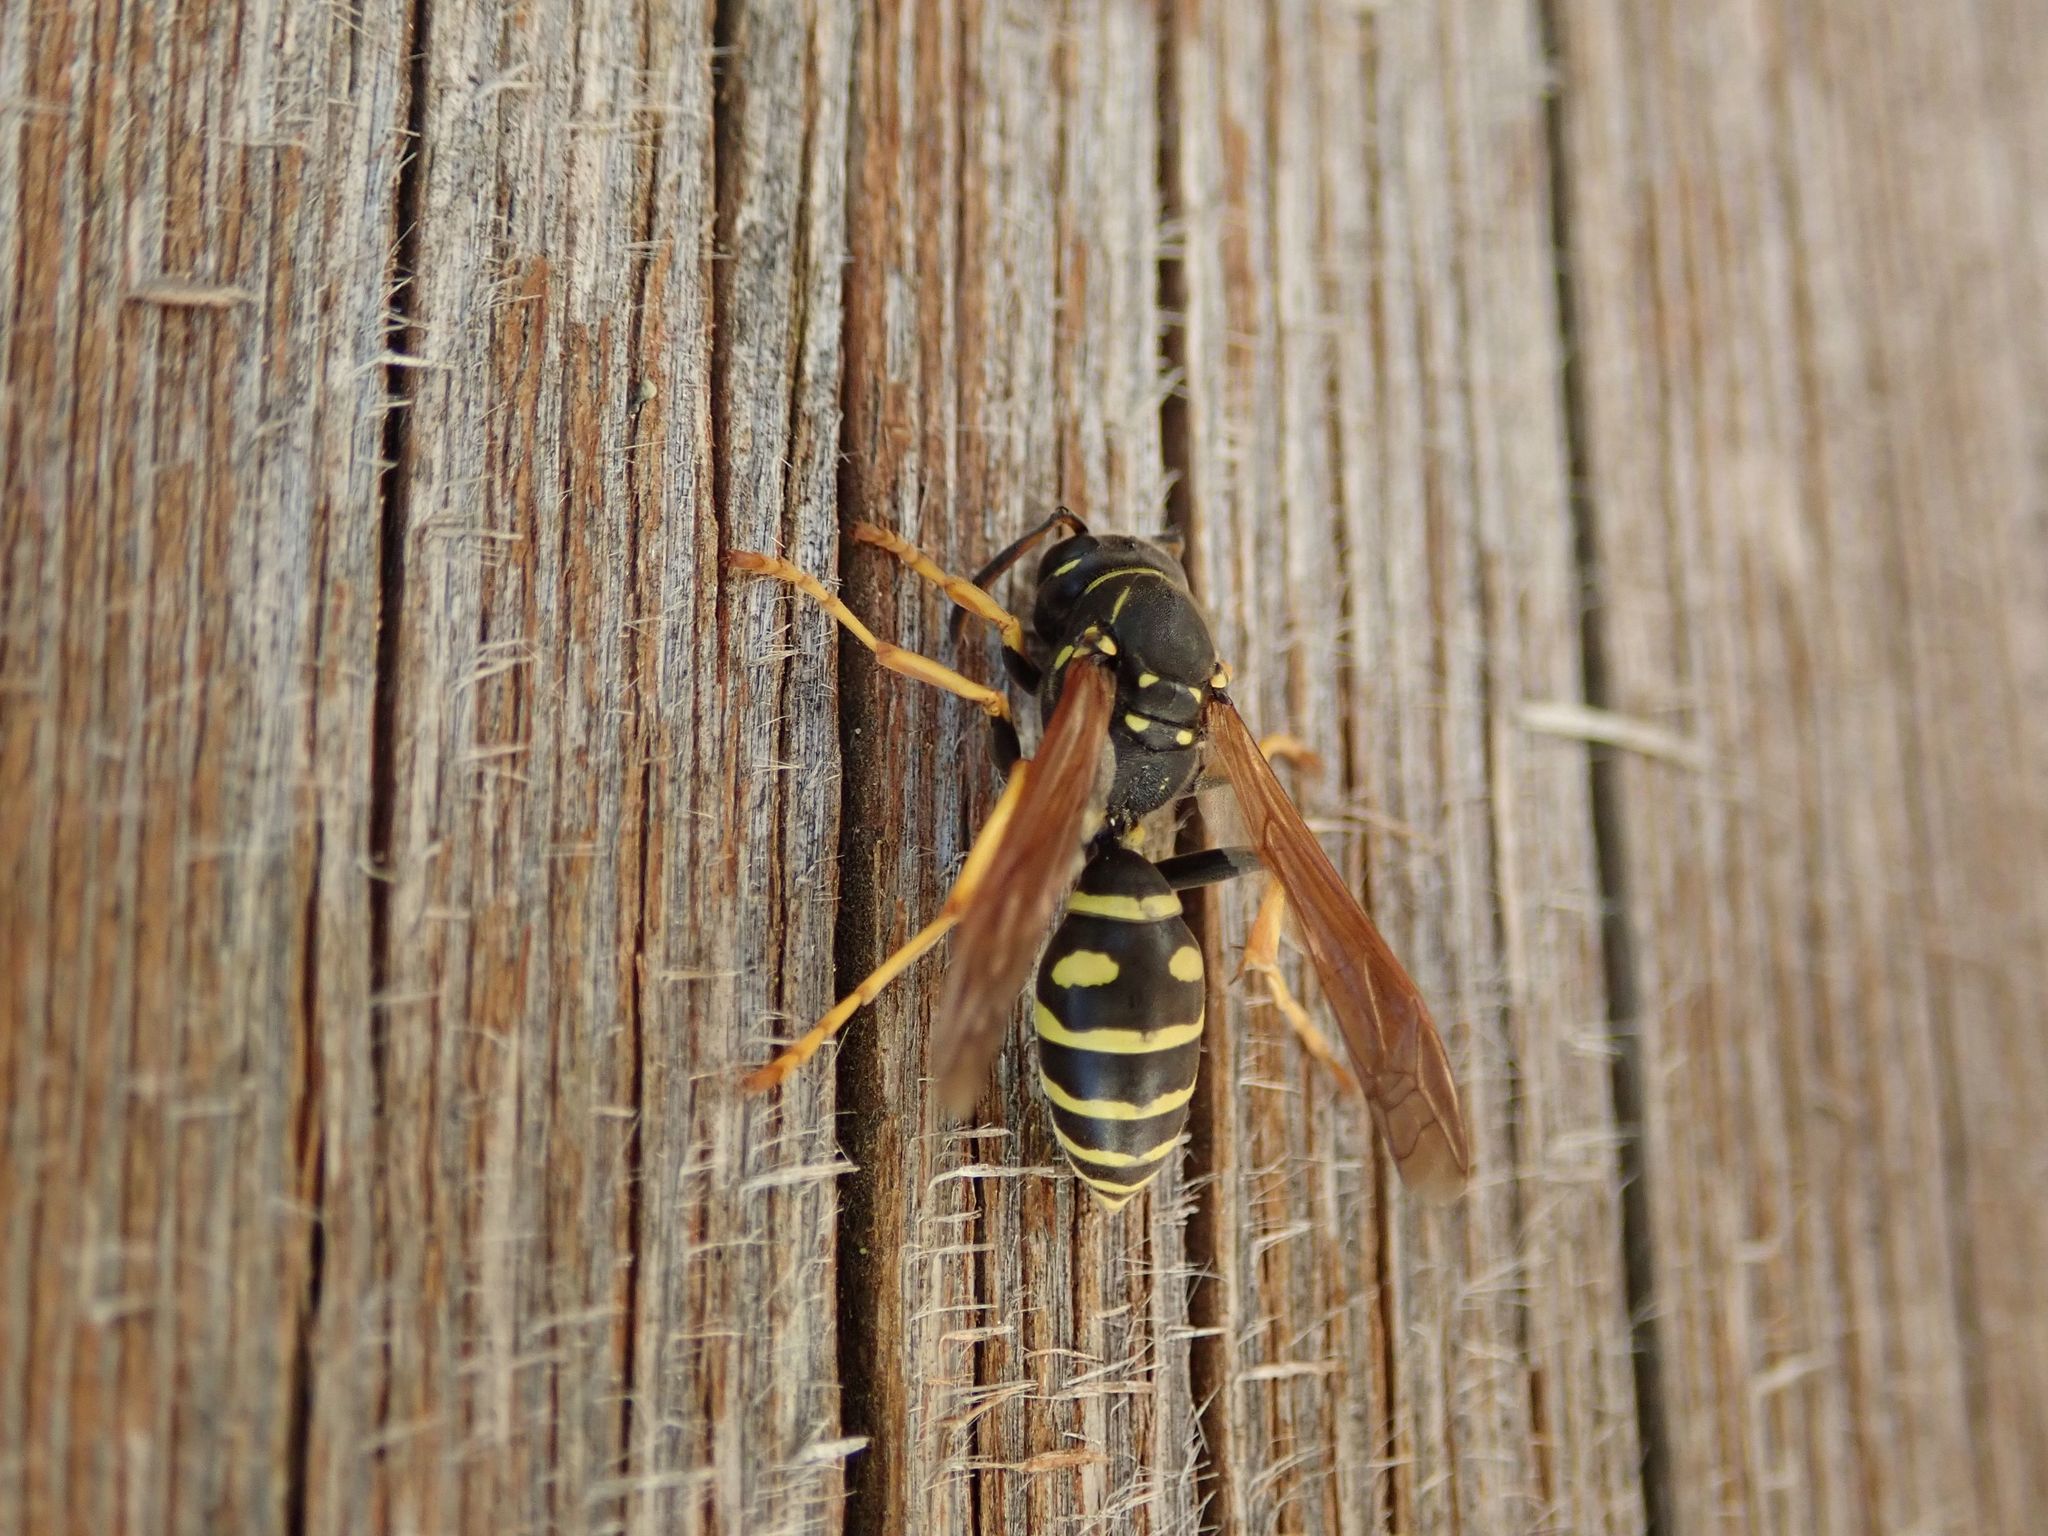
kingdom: Animalia
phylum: Arthropoda
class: Insecta
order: Hymenoptera
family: Eumenidae
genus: Polistes
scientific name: Polistes biglumis
